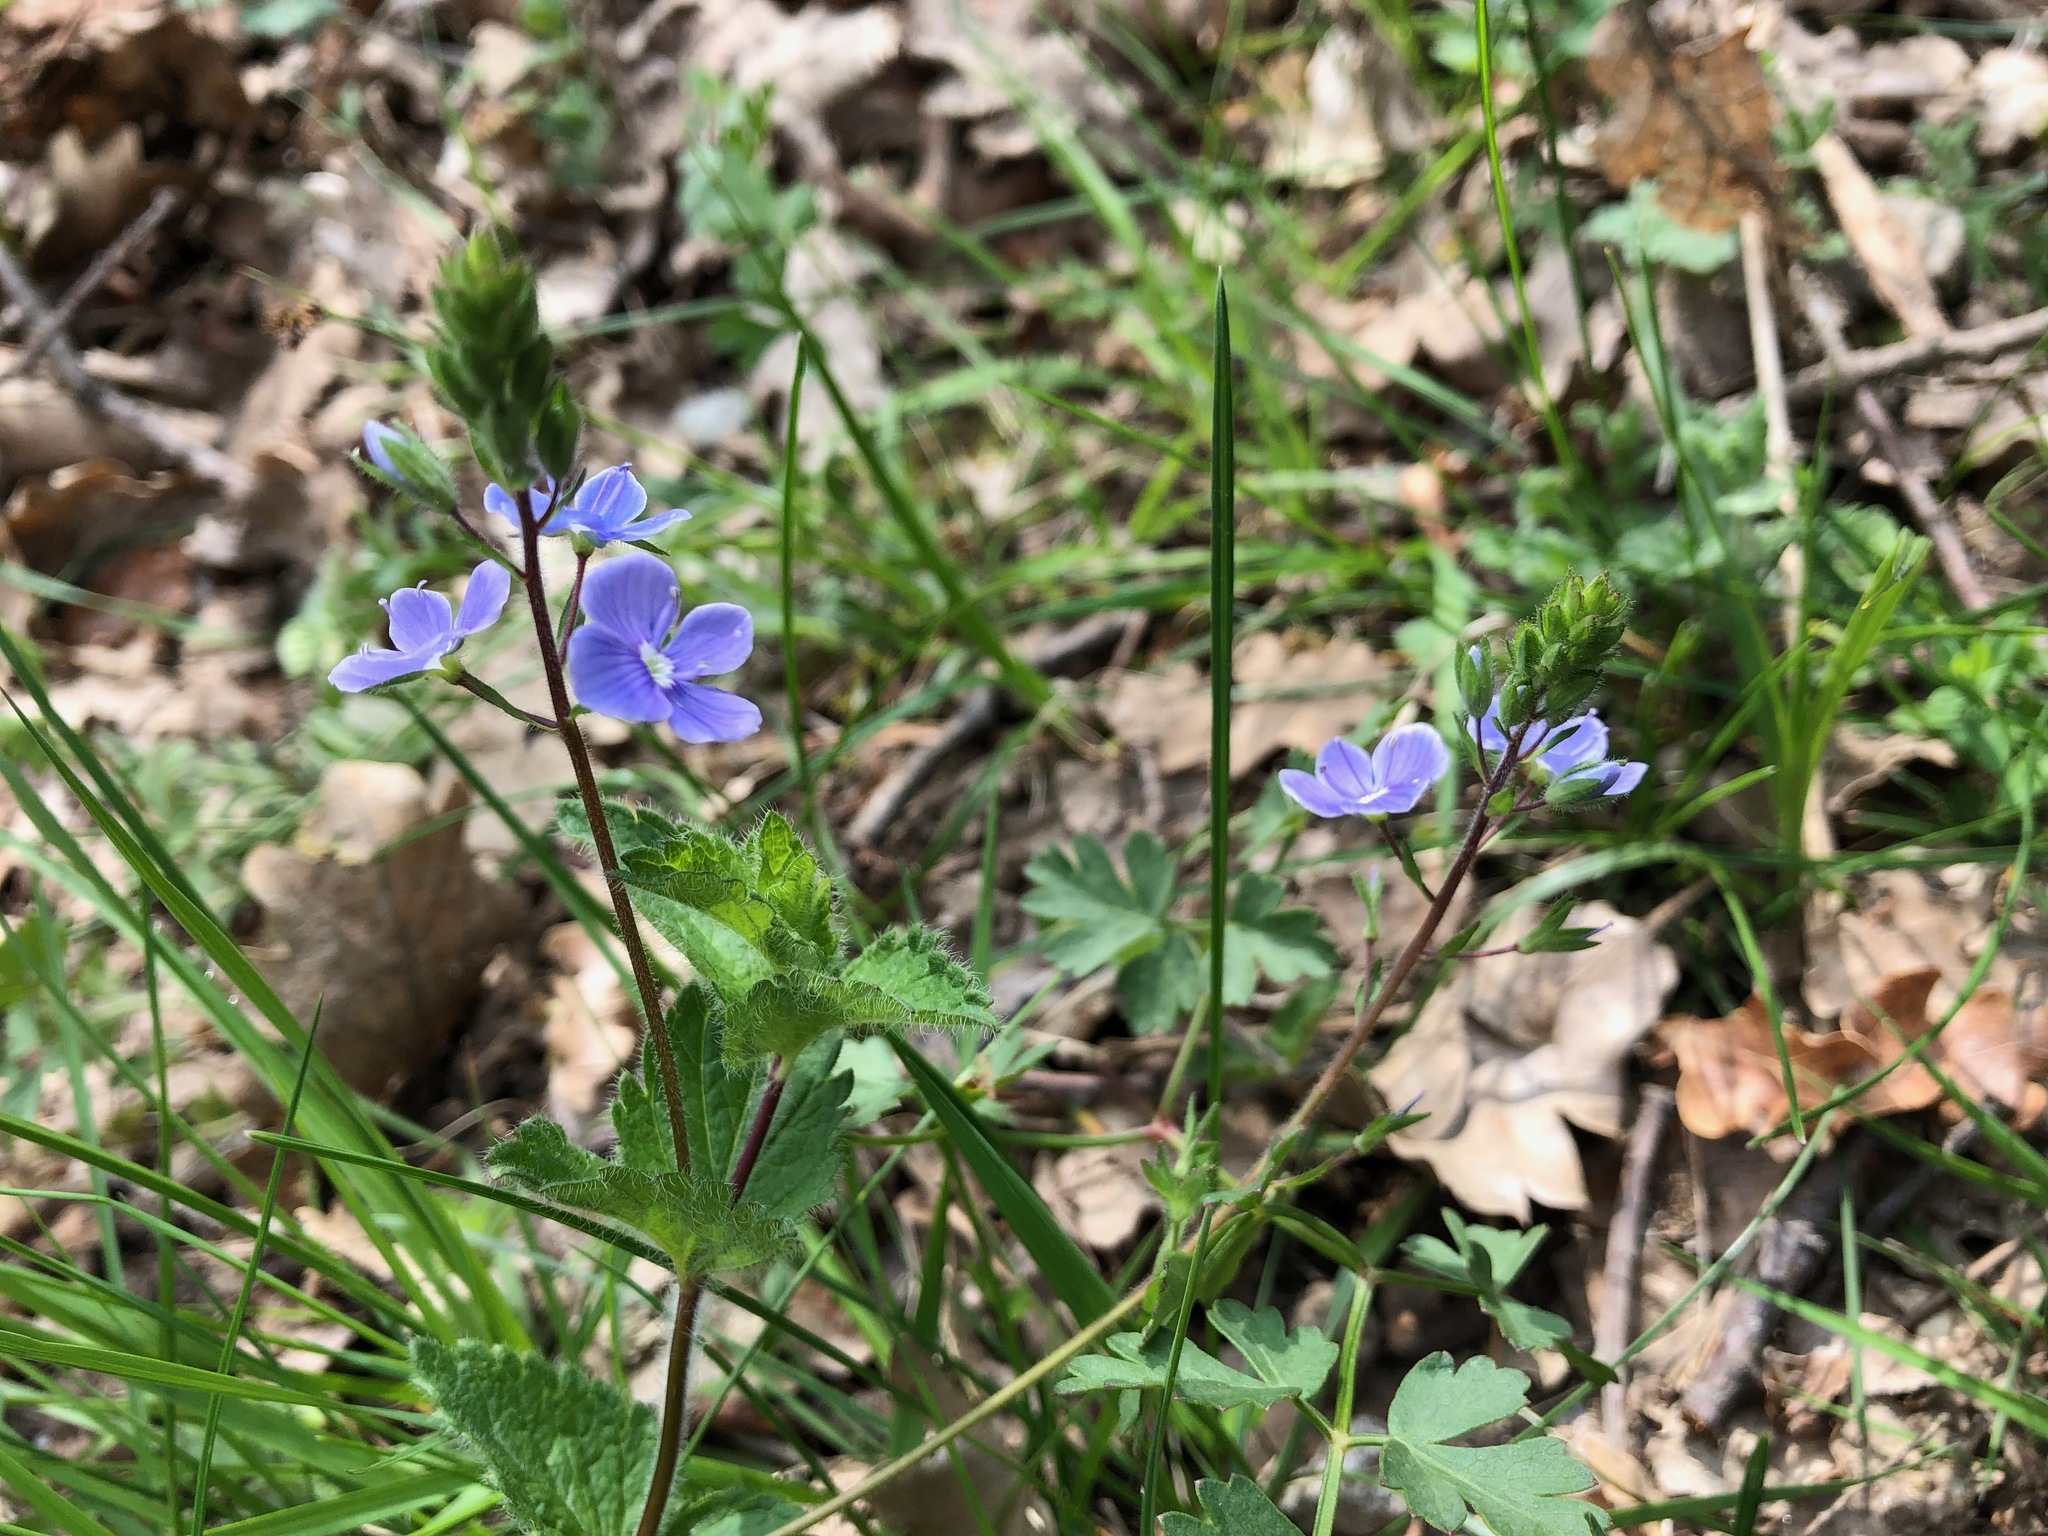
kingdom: Plantae
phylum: Tracheophyta
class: Magnoliopsida
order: Lamiales
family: Plantaginaceae
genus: Veronica
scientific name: Veronica chamaedrys
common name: Germander speedwell
